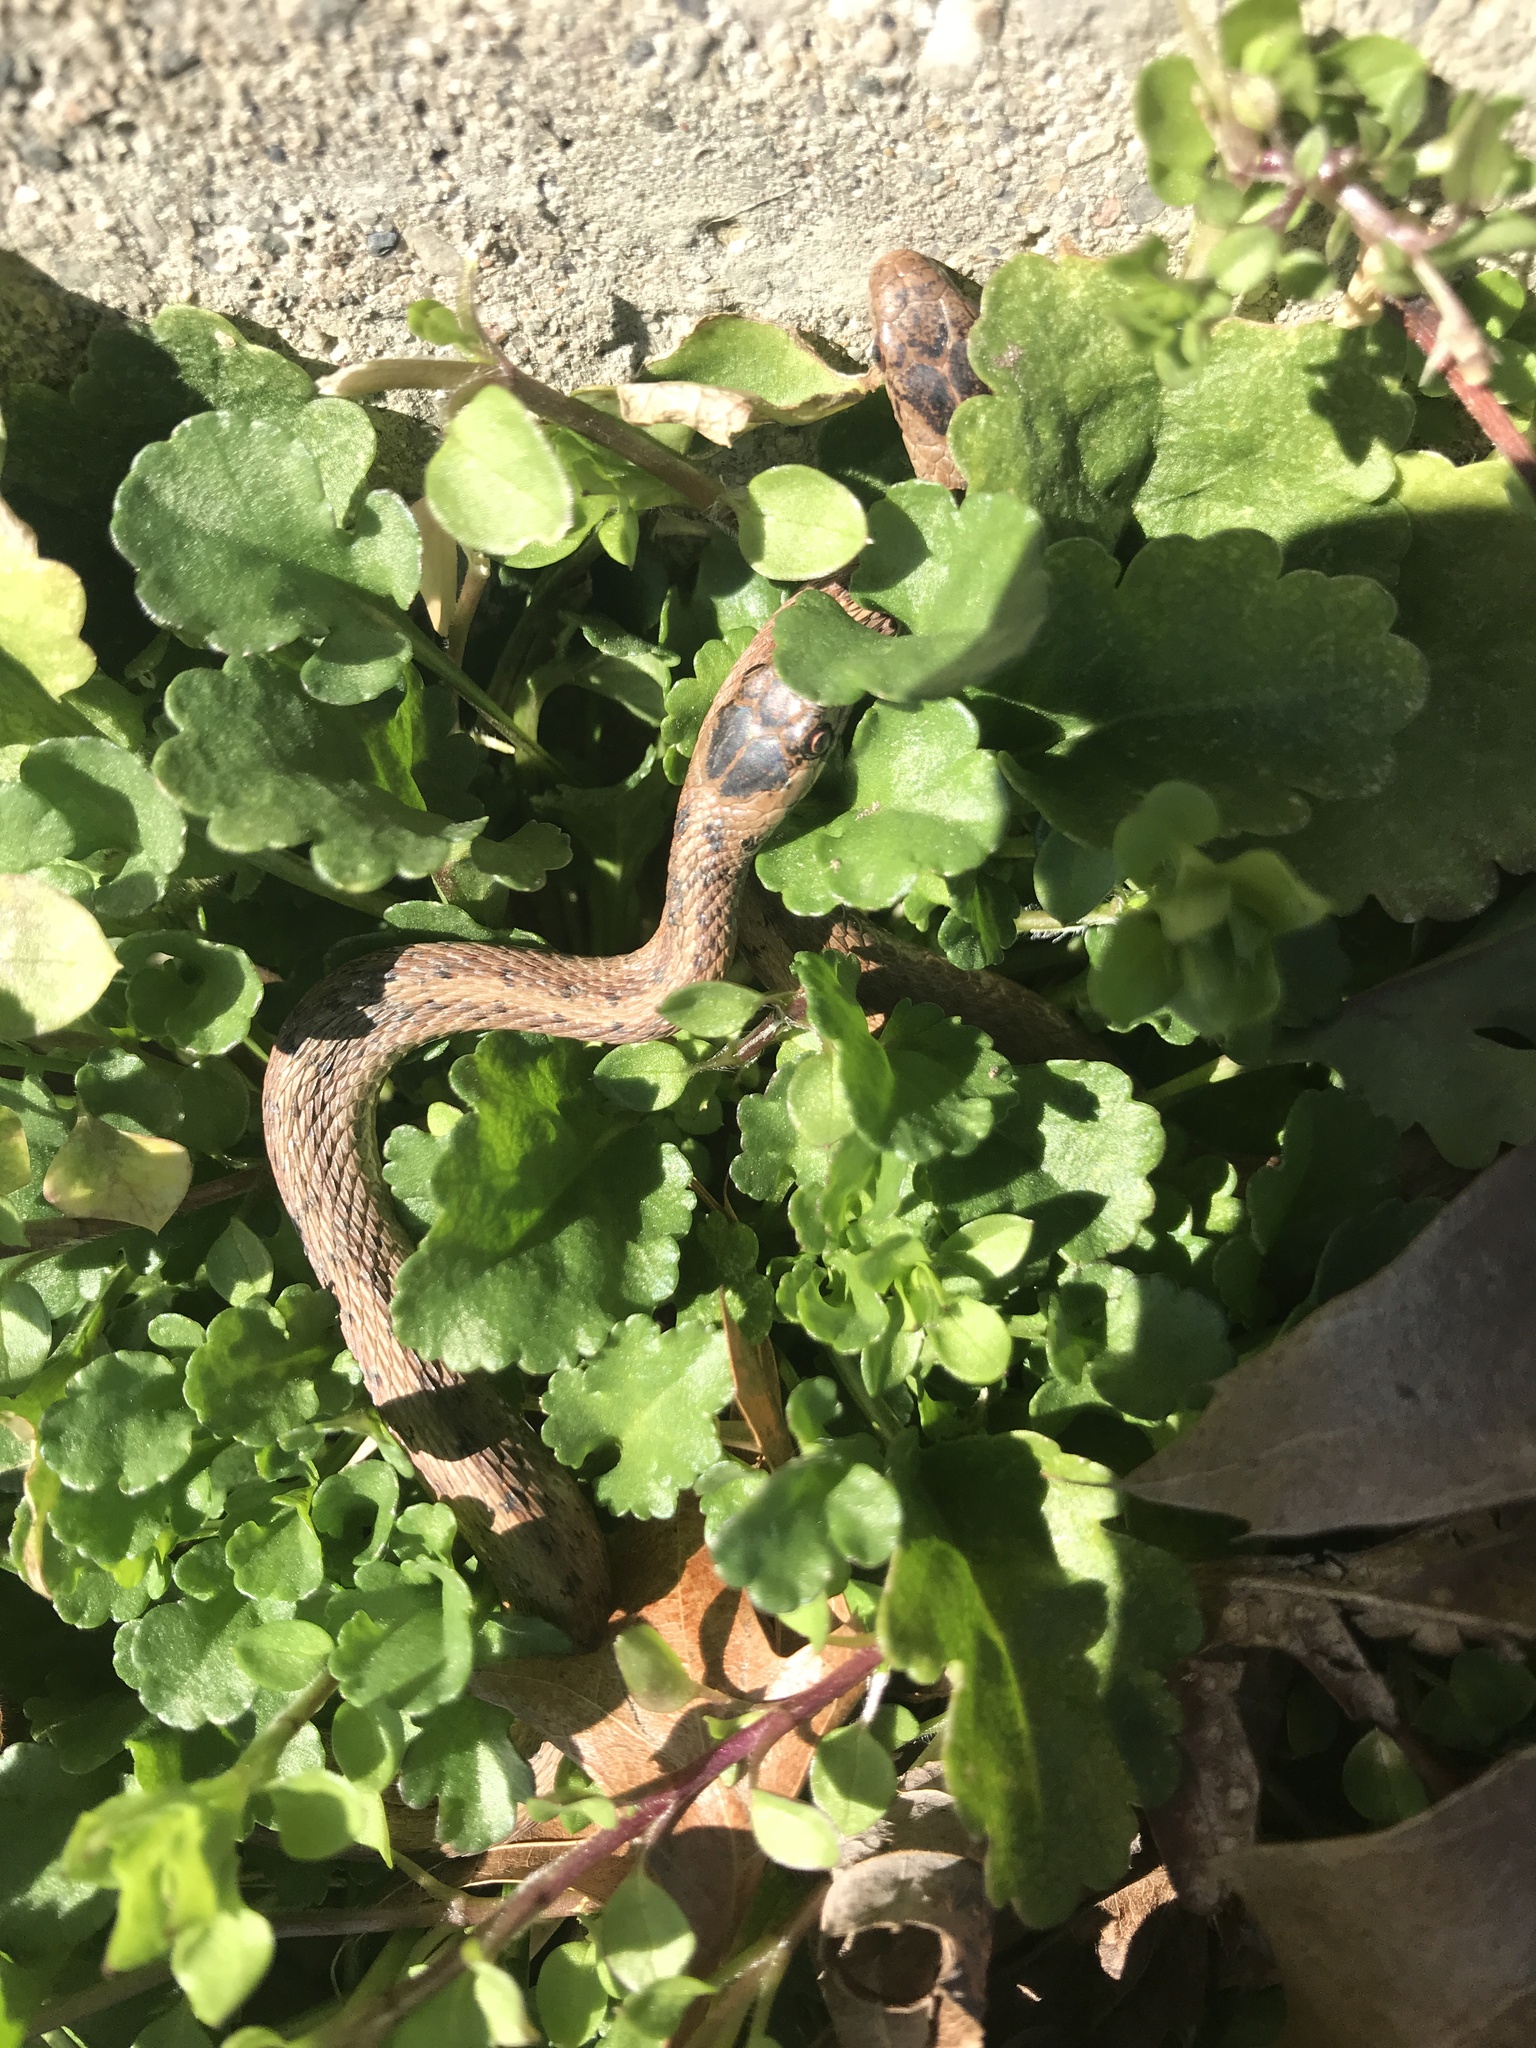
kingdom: Animalia
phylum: Chordata
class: Squamata
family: Colubridae
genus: Storeria
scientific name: Storeria dekayi
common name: (dekay’s) brown snake
